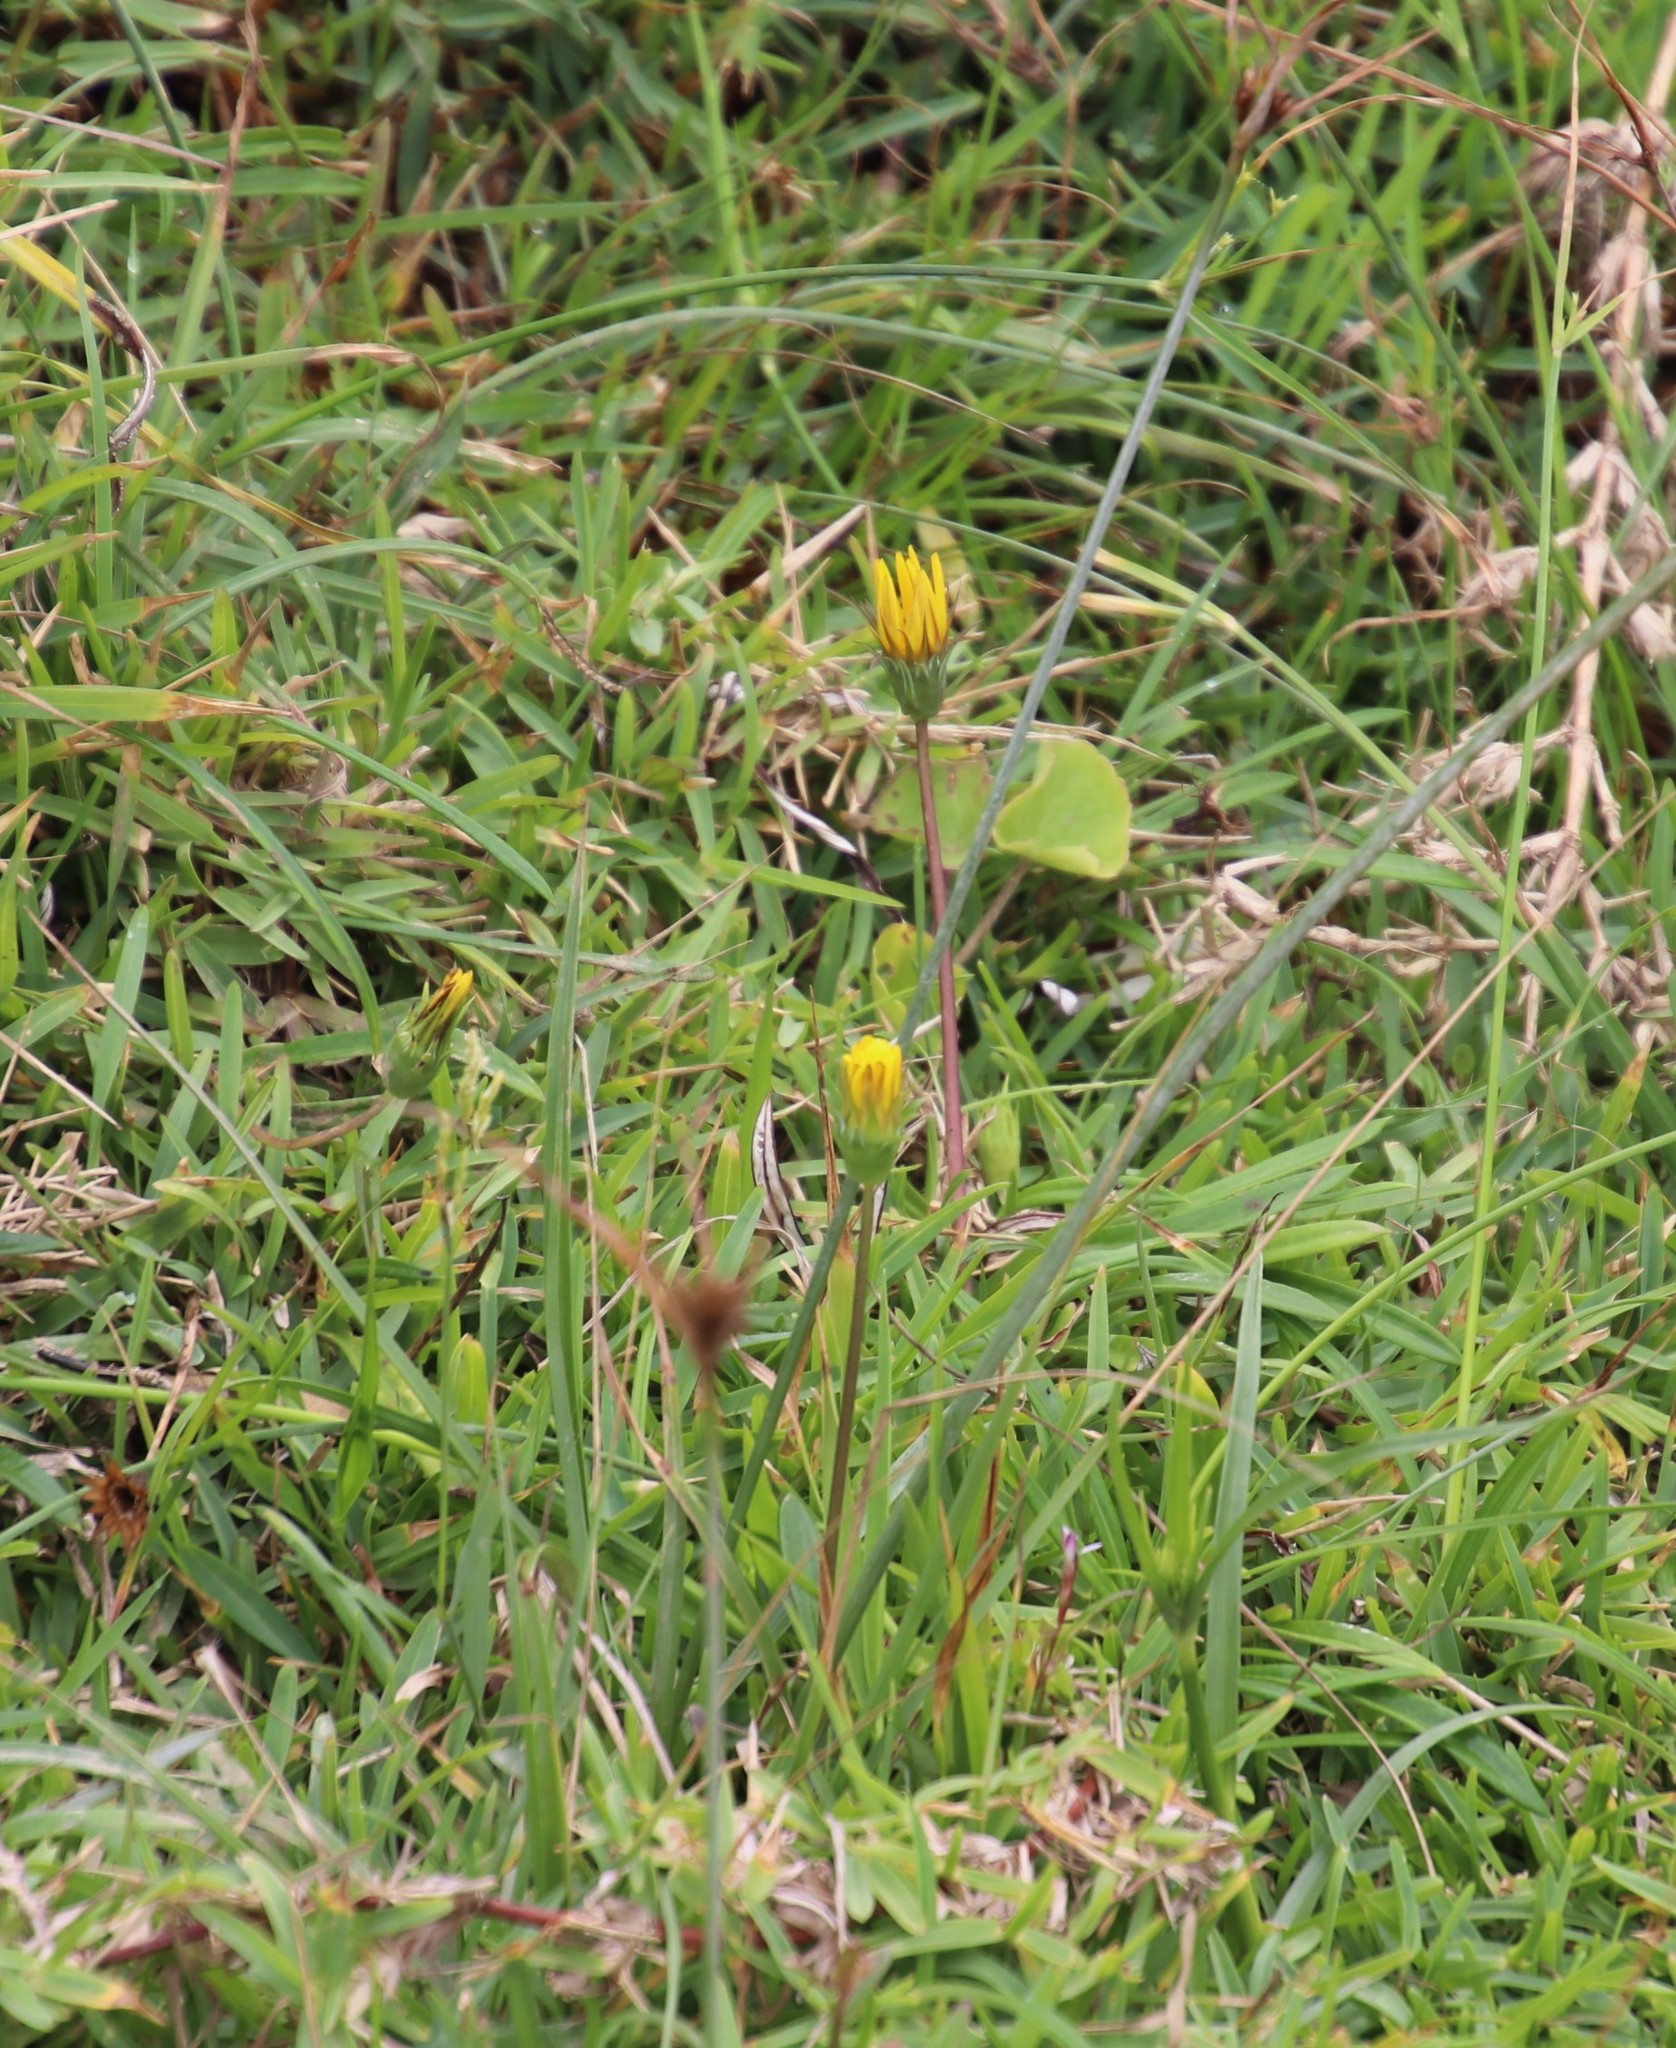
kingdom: Plantae
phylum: Tracheophyta
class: Magnoliopsida
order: Asterales
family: Asteraceae
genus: Gazania
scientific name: Gazania rigens
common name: Treasureflower
